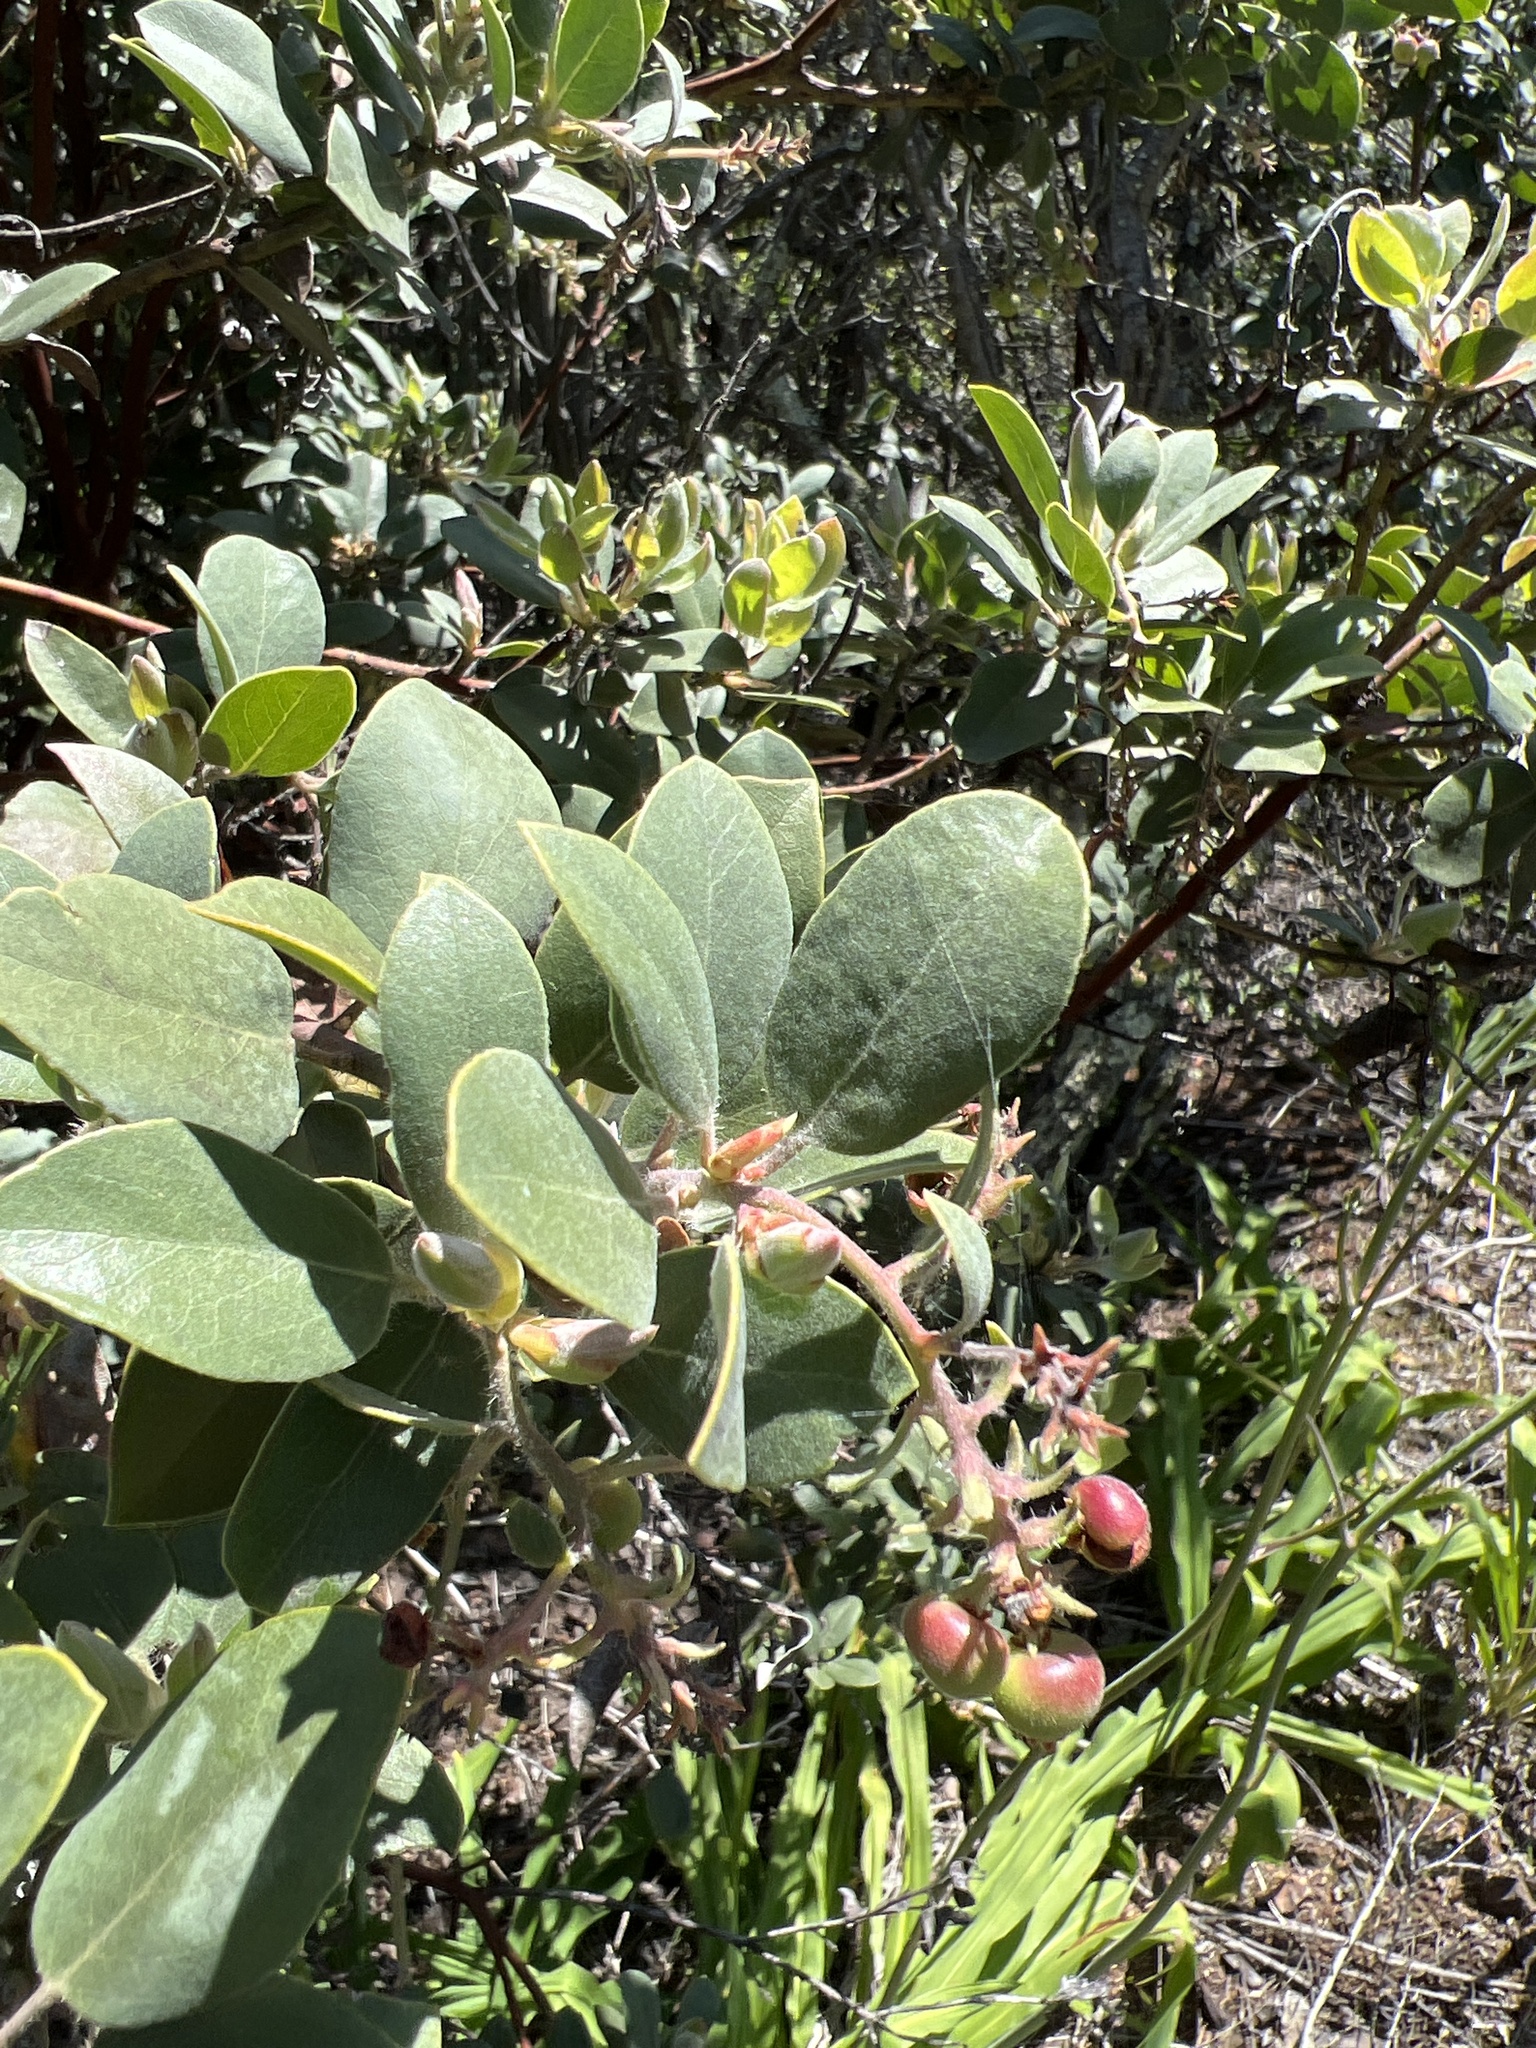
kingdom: Plantae
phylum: Tracheophyta
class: Magnoliopsida
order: Ericales
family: Ericaceae
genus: Arctostaphylos
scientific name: Arctostaphylos crustacea
